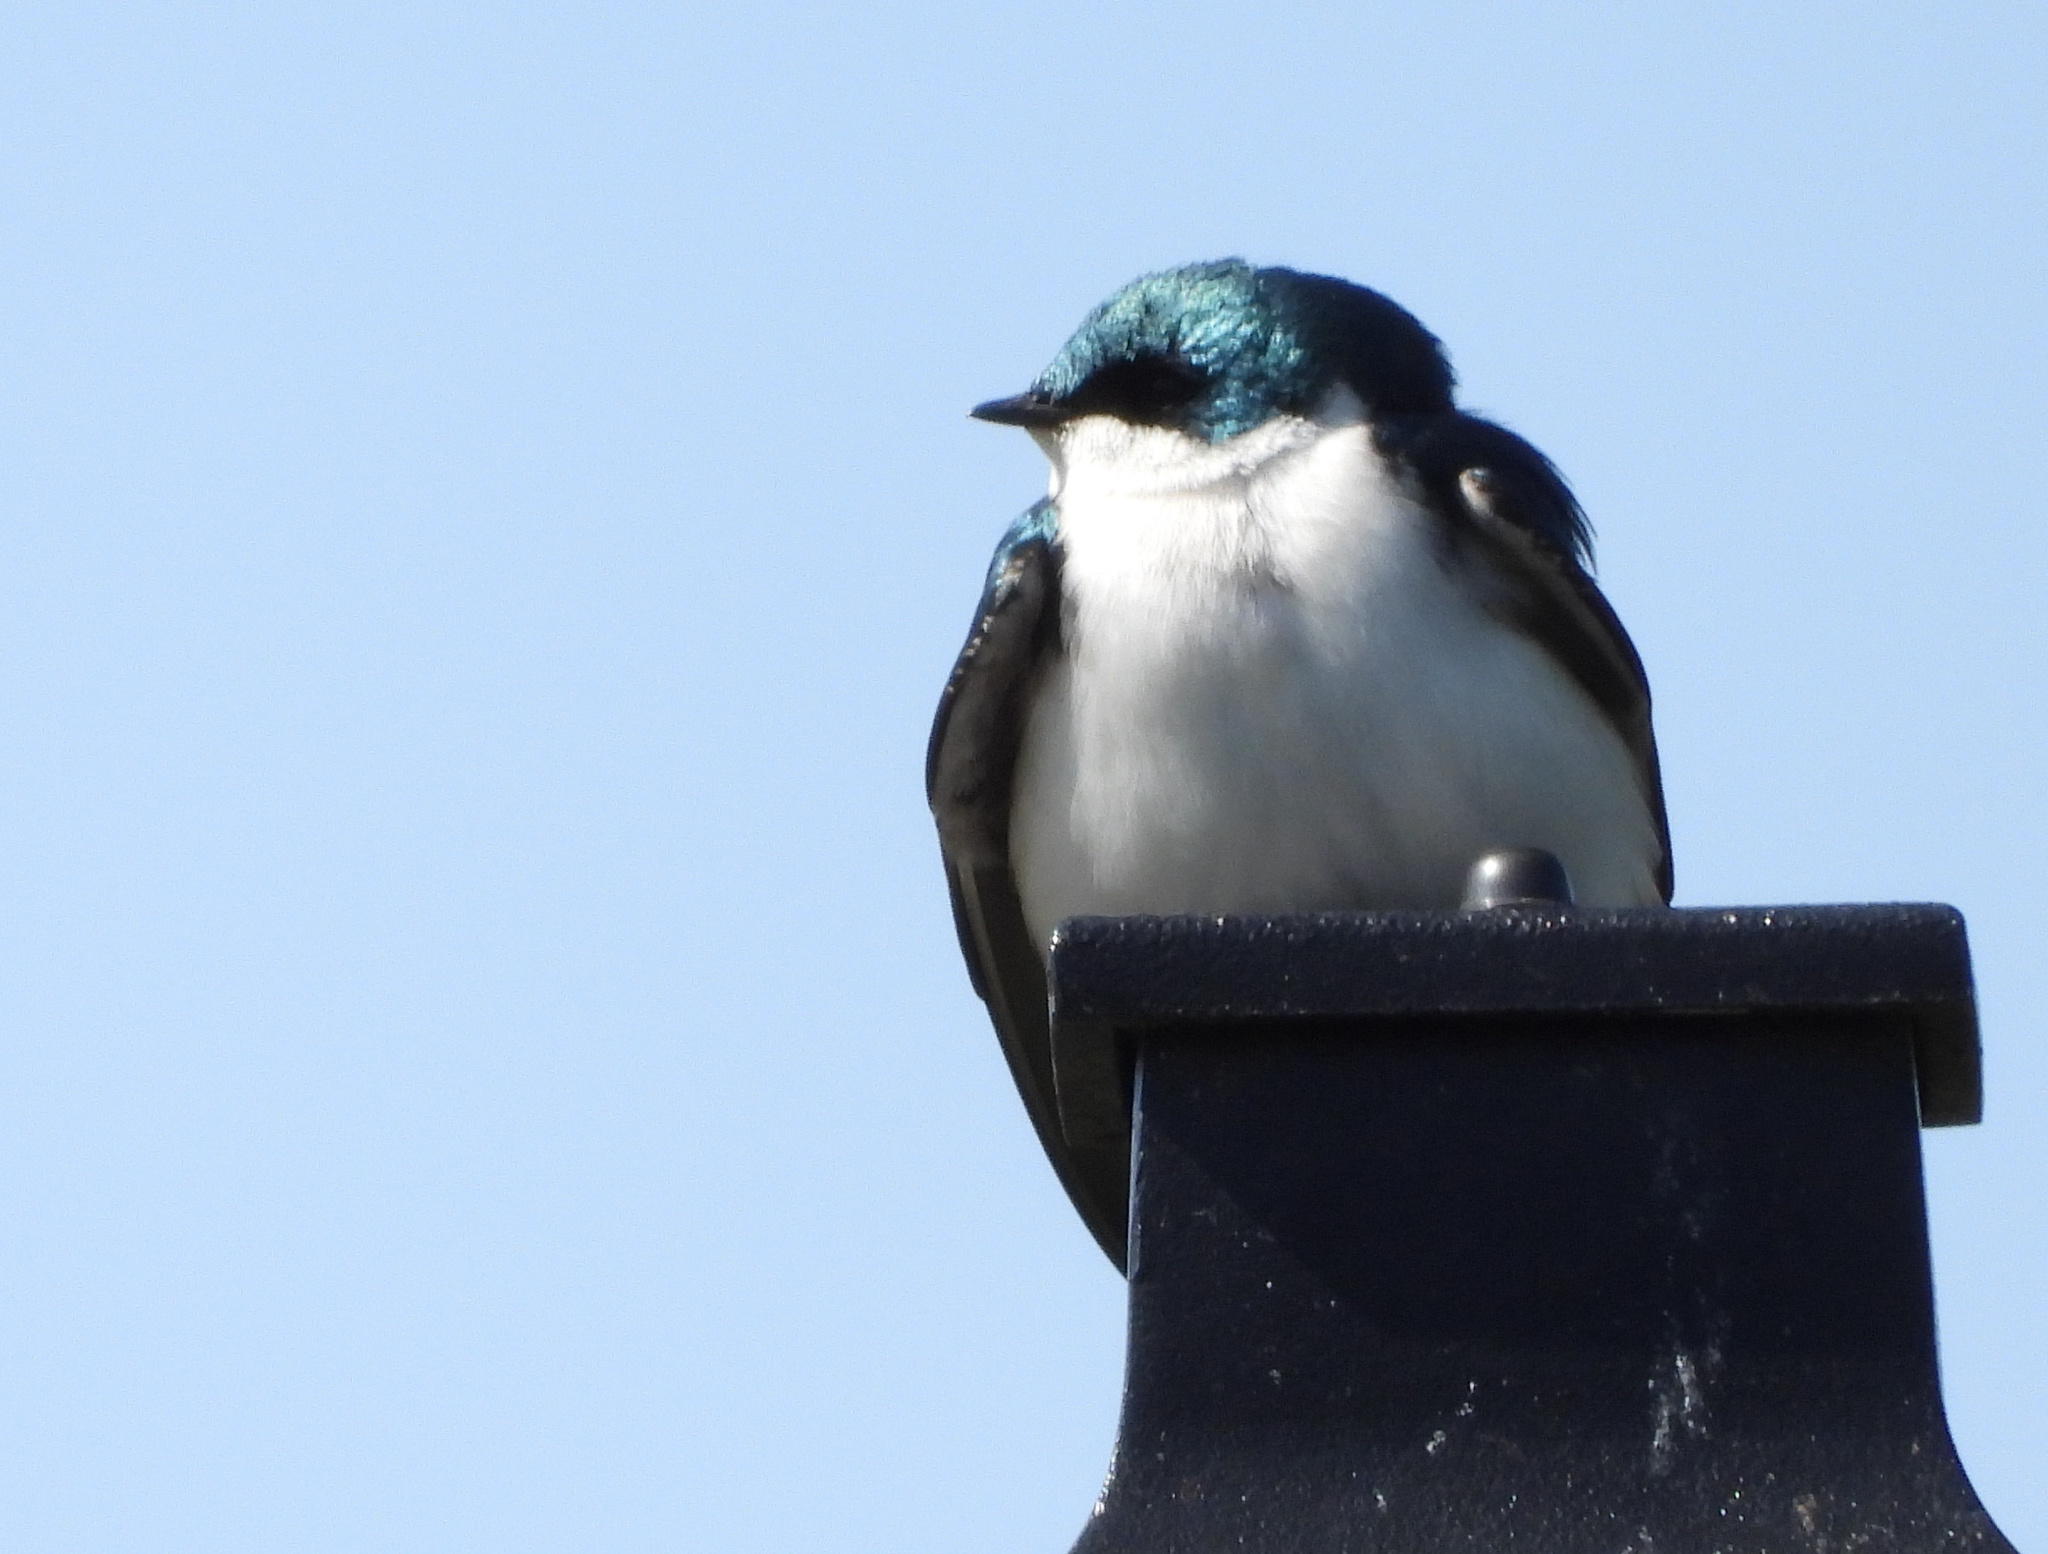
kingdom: Animalia
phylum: Chordata
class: Aves
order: Passeriformes
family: Hirundinidae
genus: Tachycineta
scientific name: Tachycineta bicolor
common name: Tree swallow
